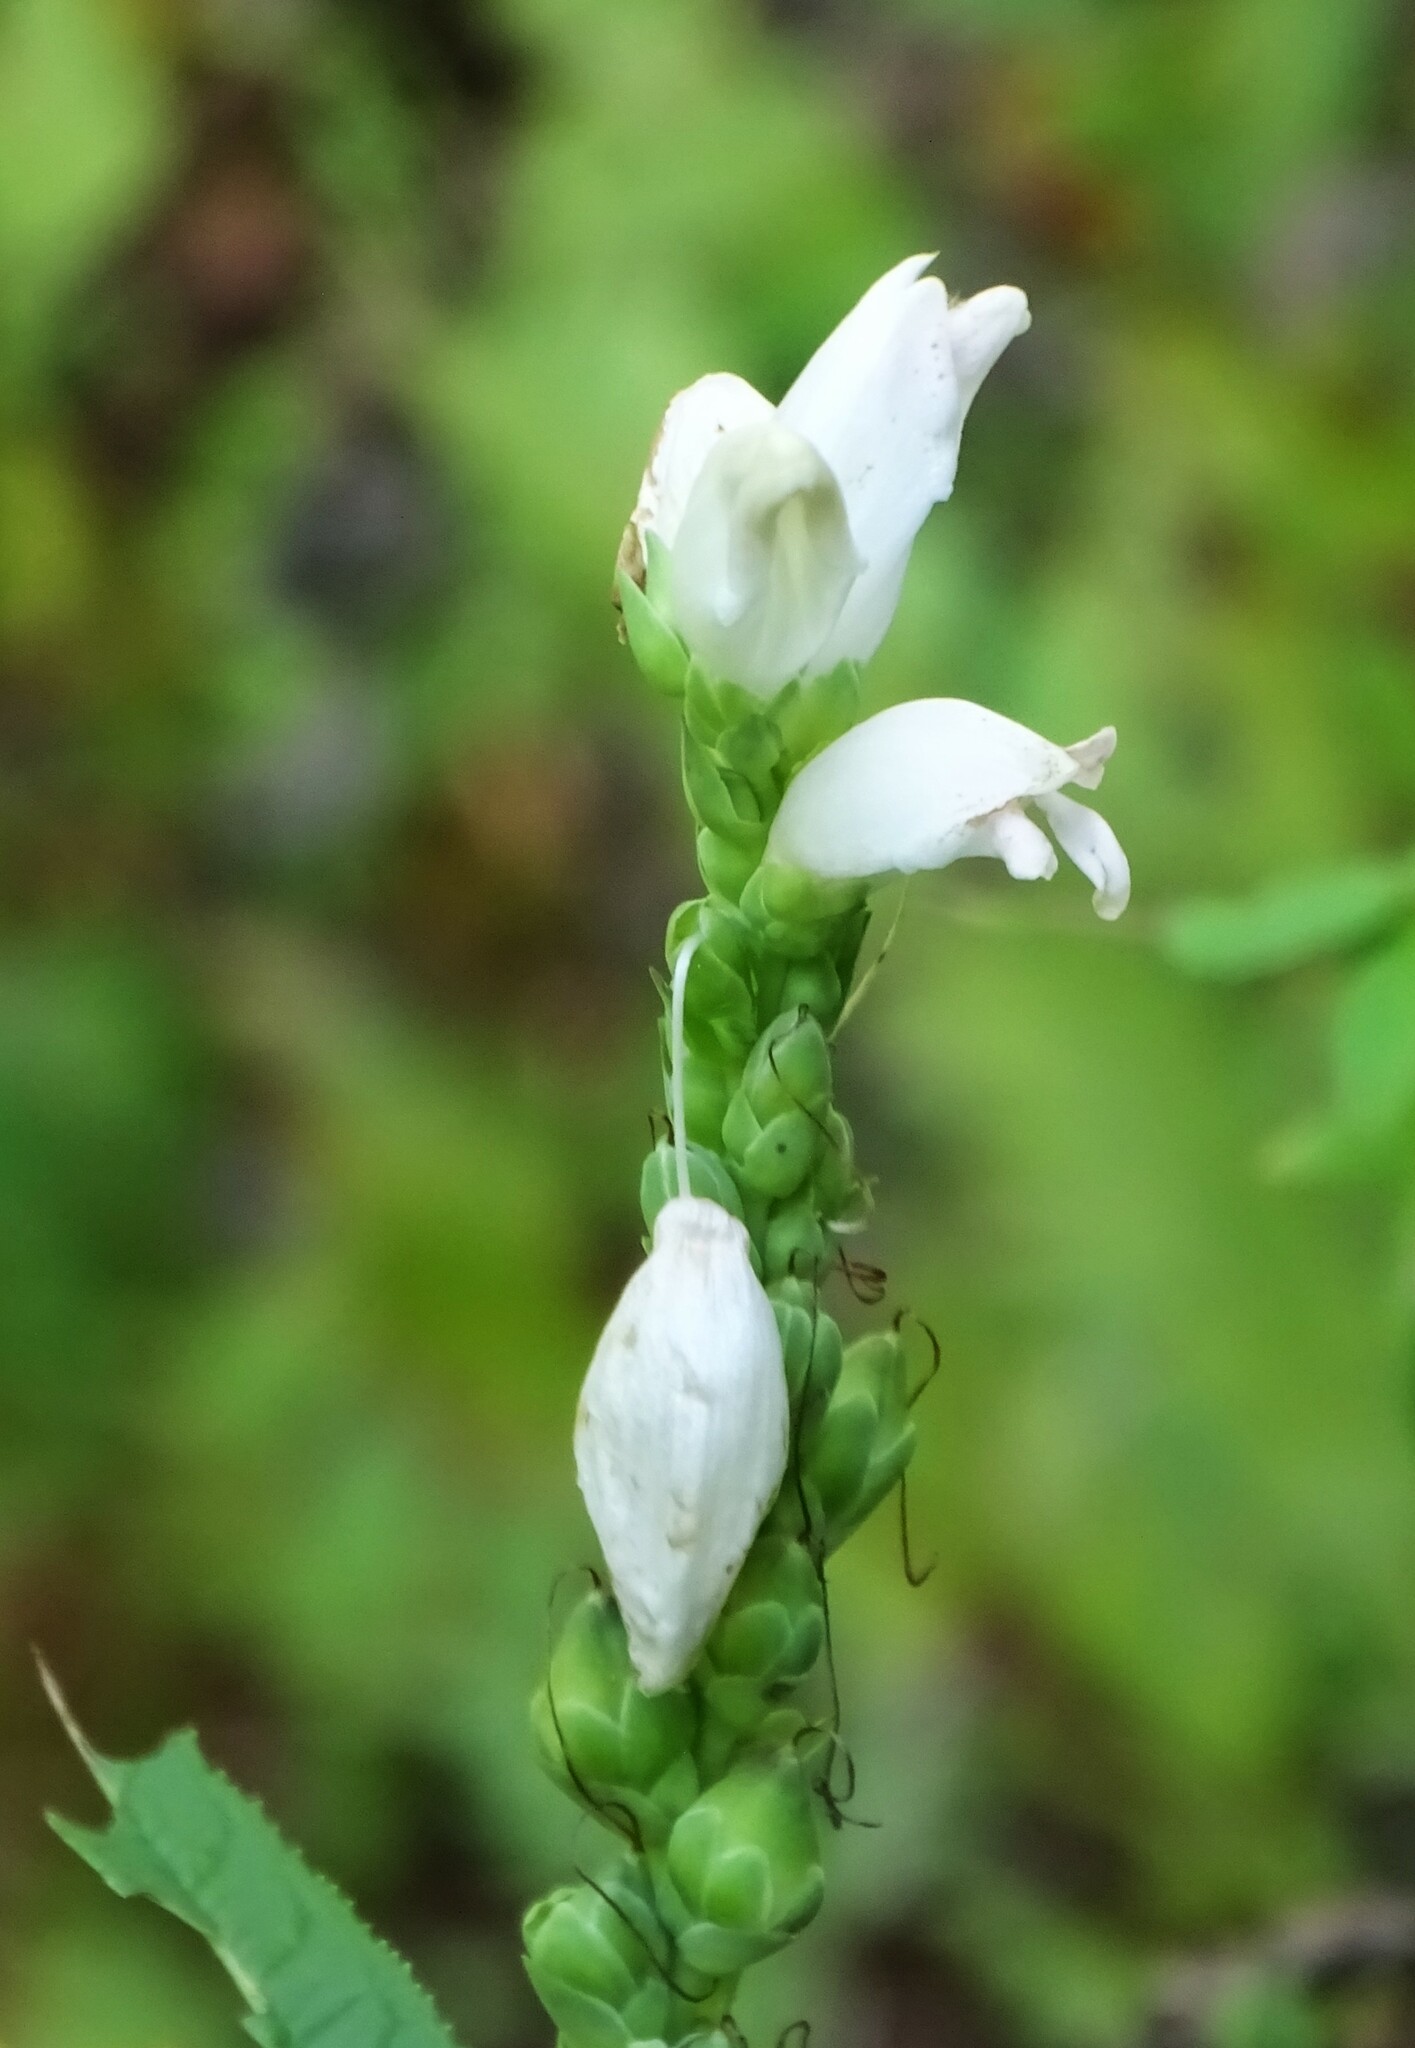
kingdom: Plantae
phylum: Tracheophyta
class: Magnoliopsida
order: Lamiales
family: Plantaginaceae
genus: Chelone
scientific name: Chelone glabra
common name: Snakehead
